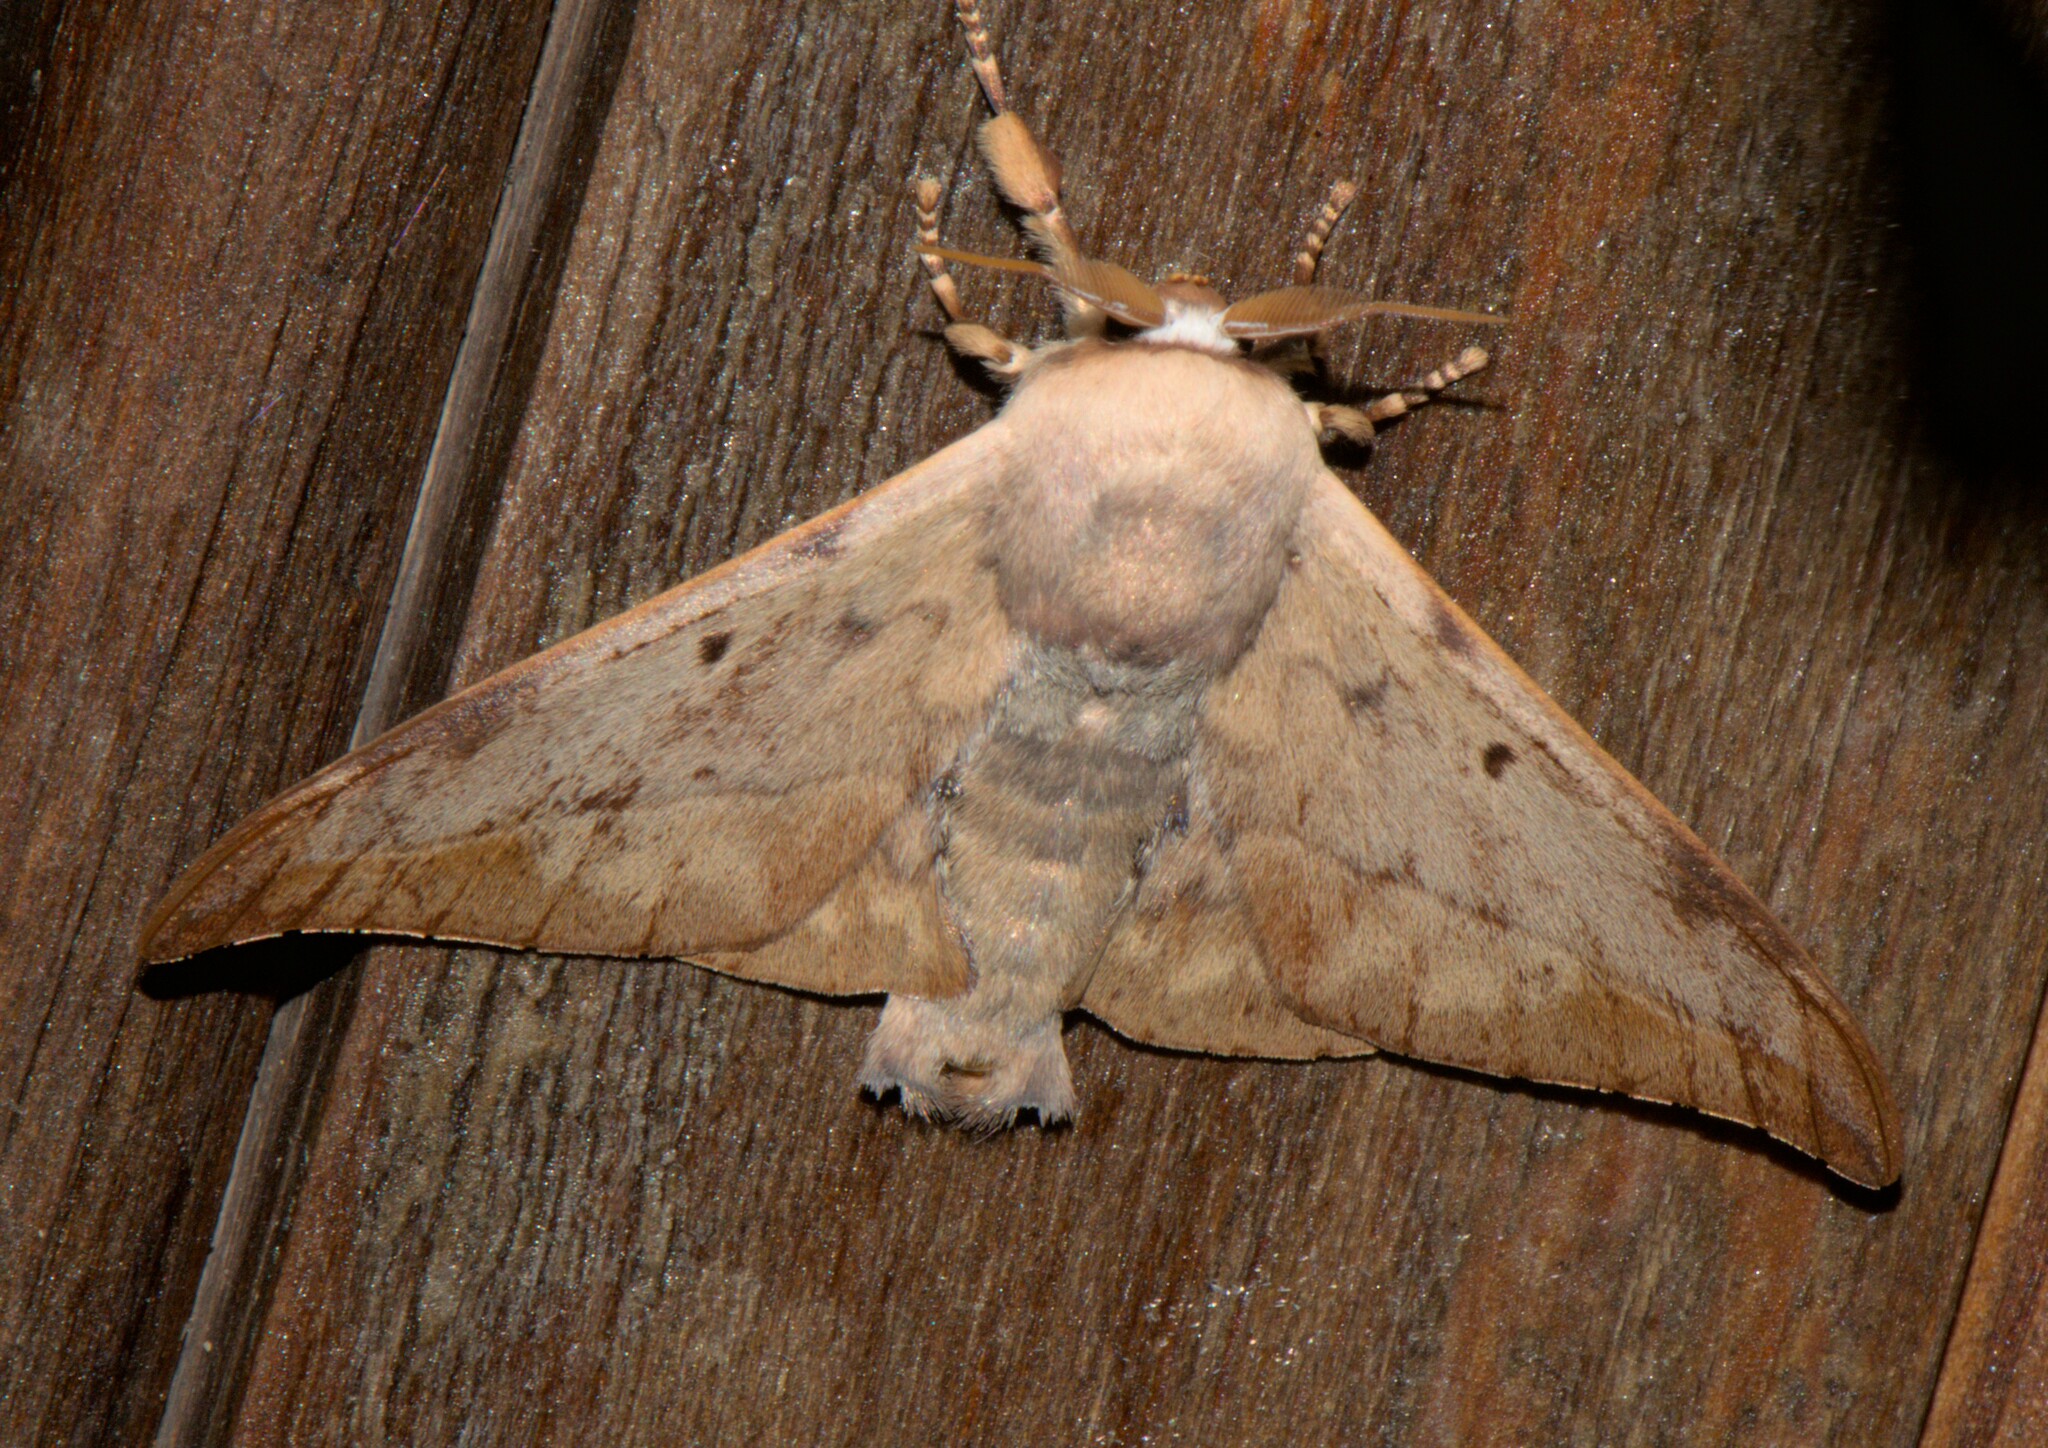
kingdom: Animalia
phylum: Arthropoda
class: Insecta
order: Lepidoptera
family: Endromidae
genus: Mustilizans
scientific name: Mustilizans hepatica
